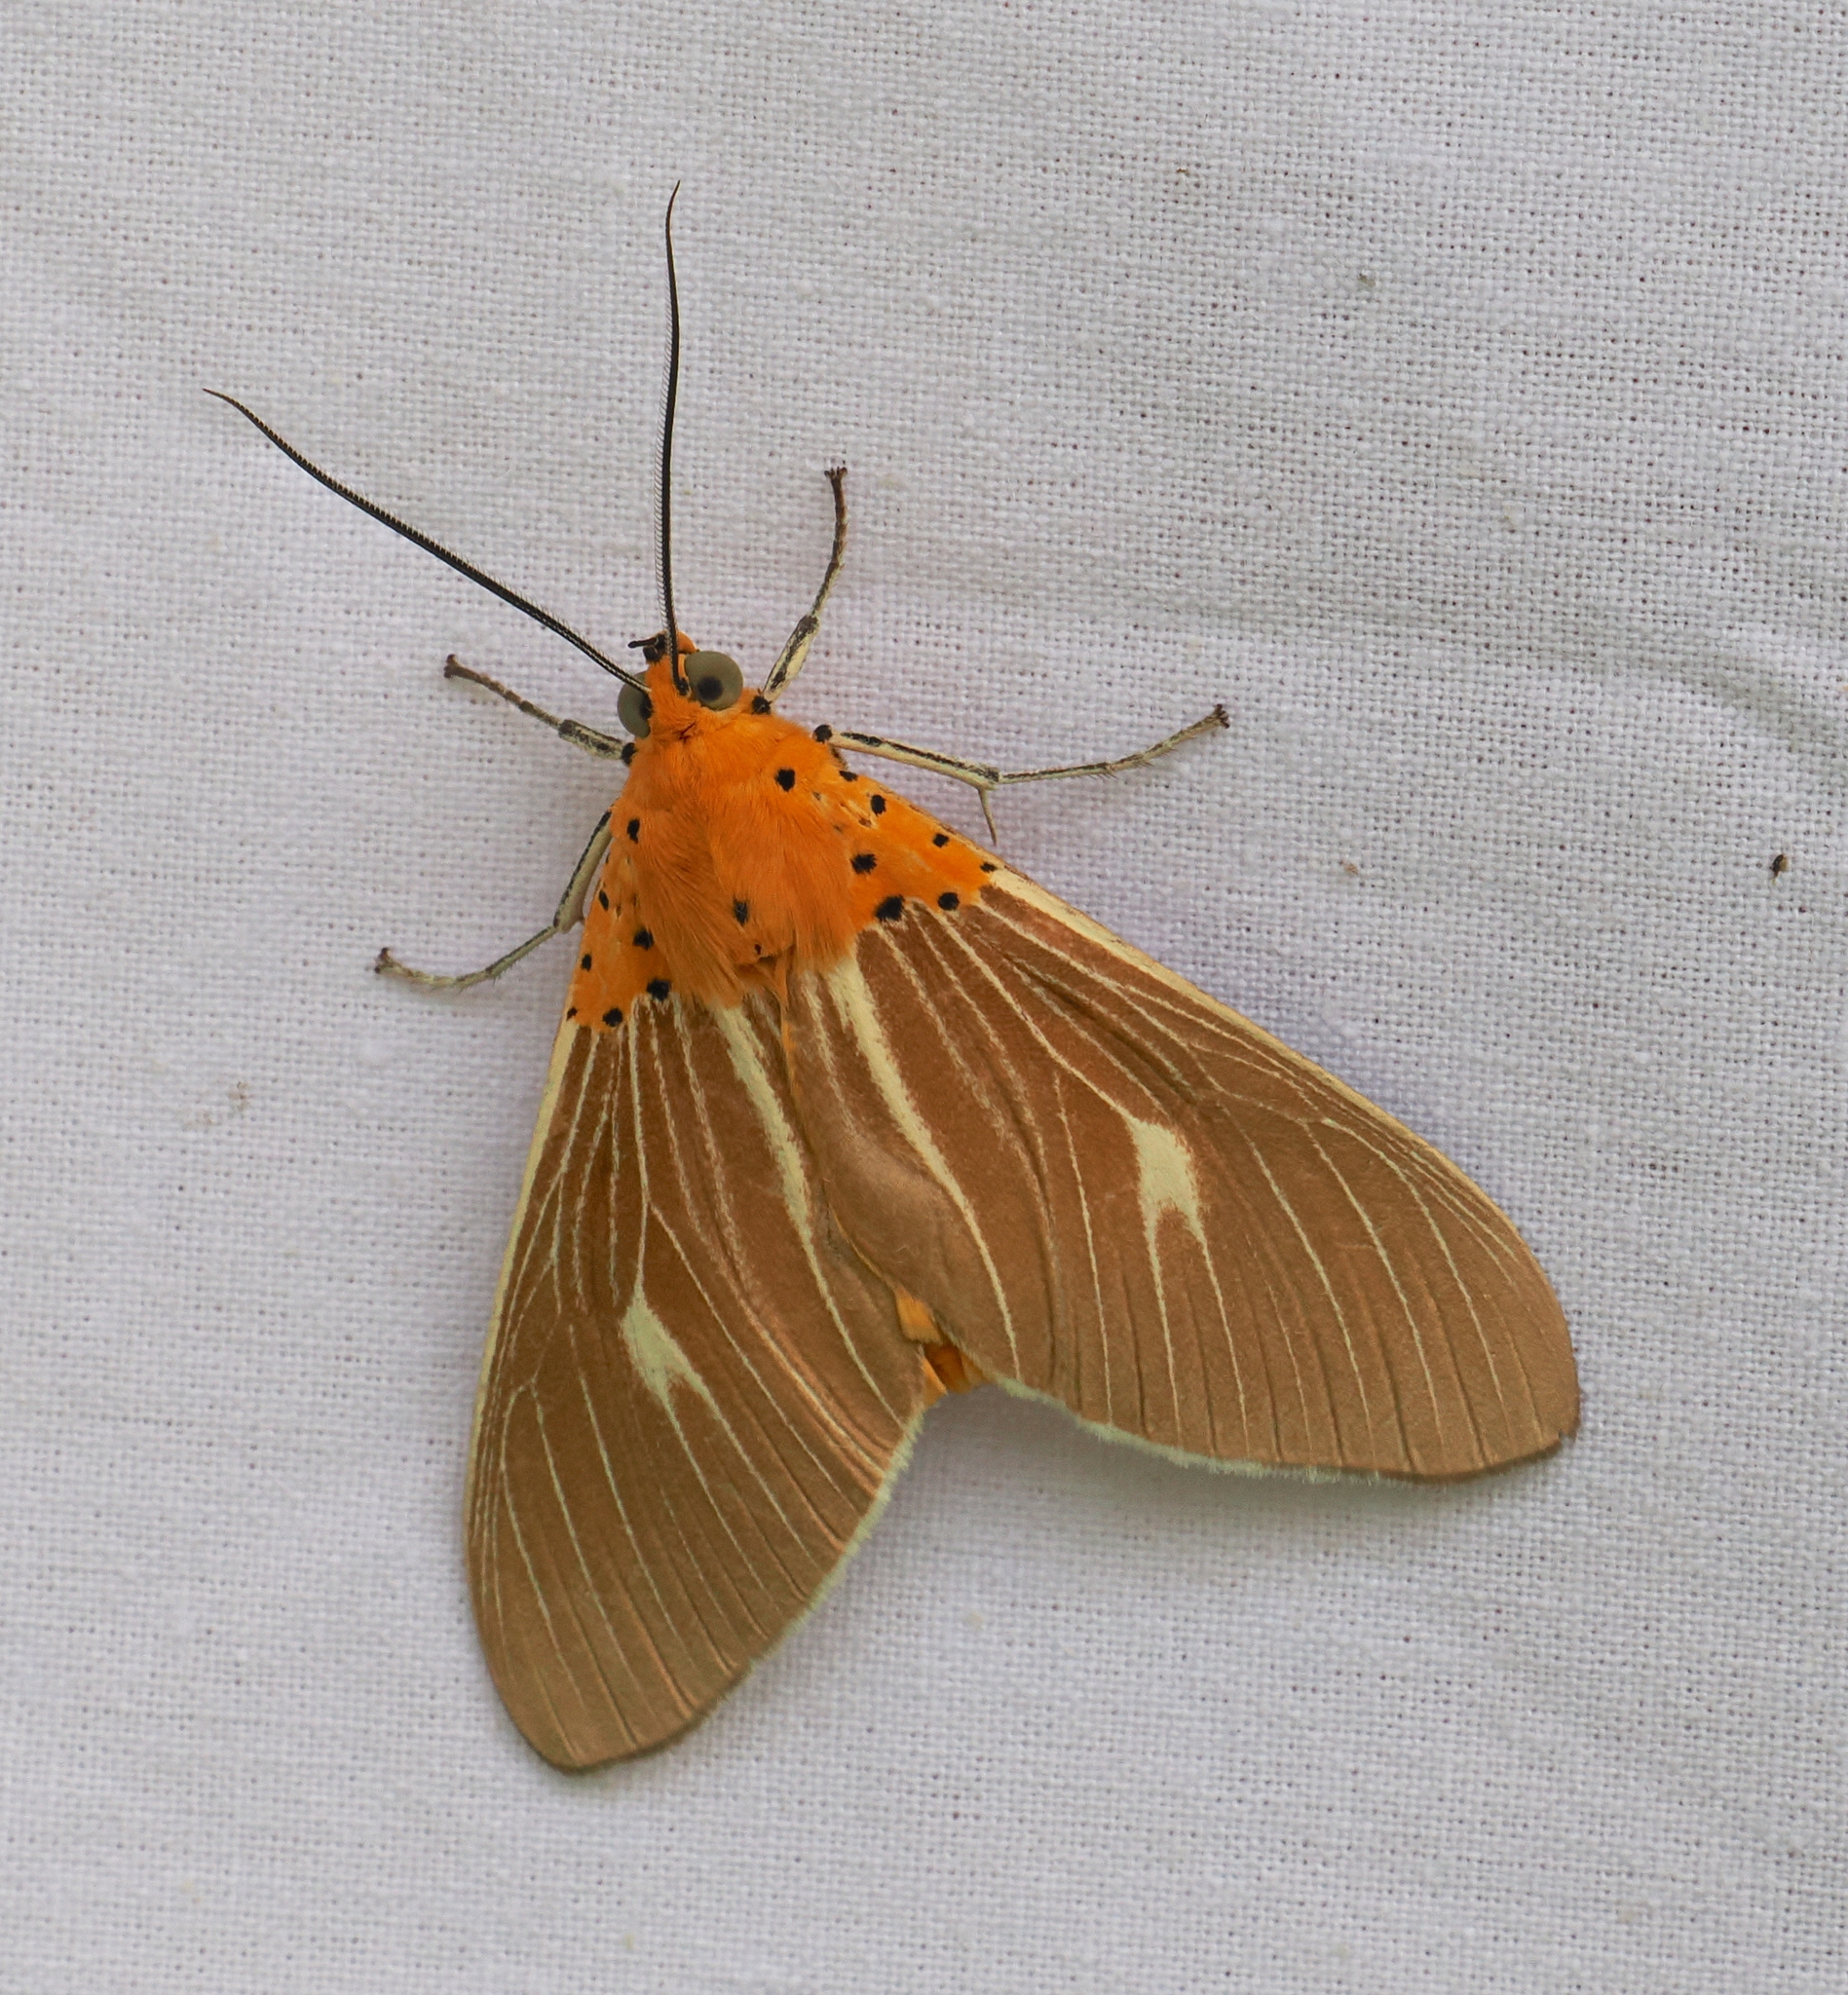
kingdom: Animalia
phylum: Arthropoda
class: Insecta
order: Lepidoptera
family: Erebidae
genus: Asota
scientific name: Asota producta
